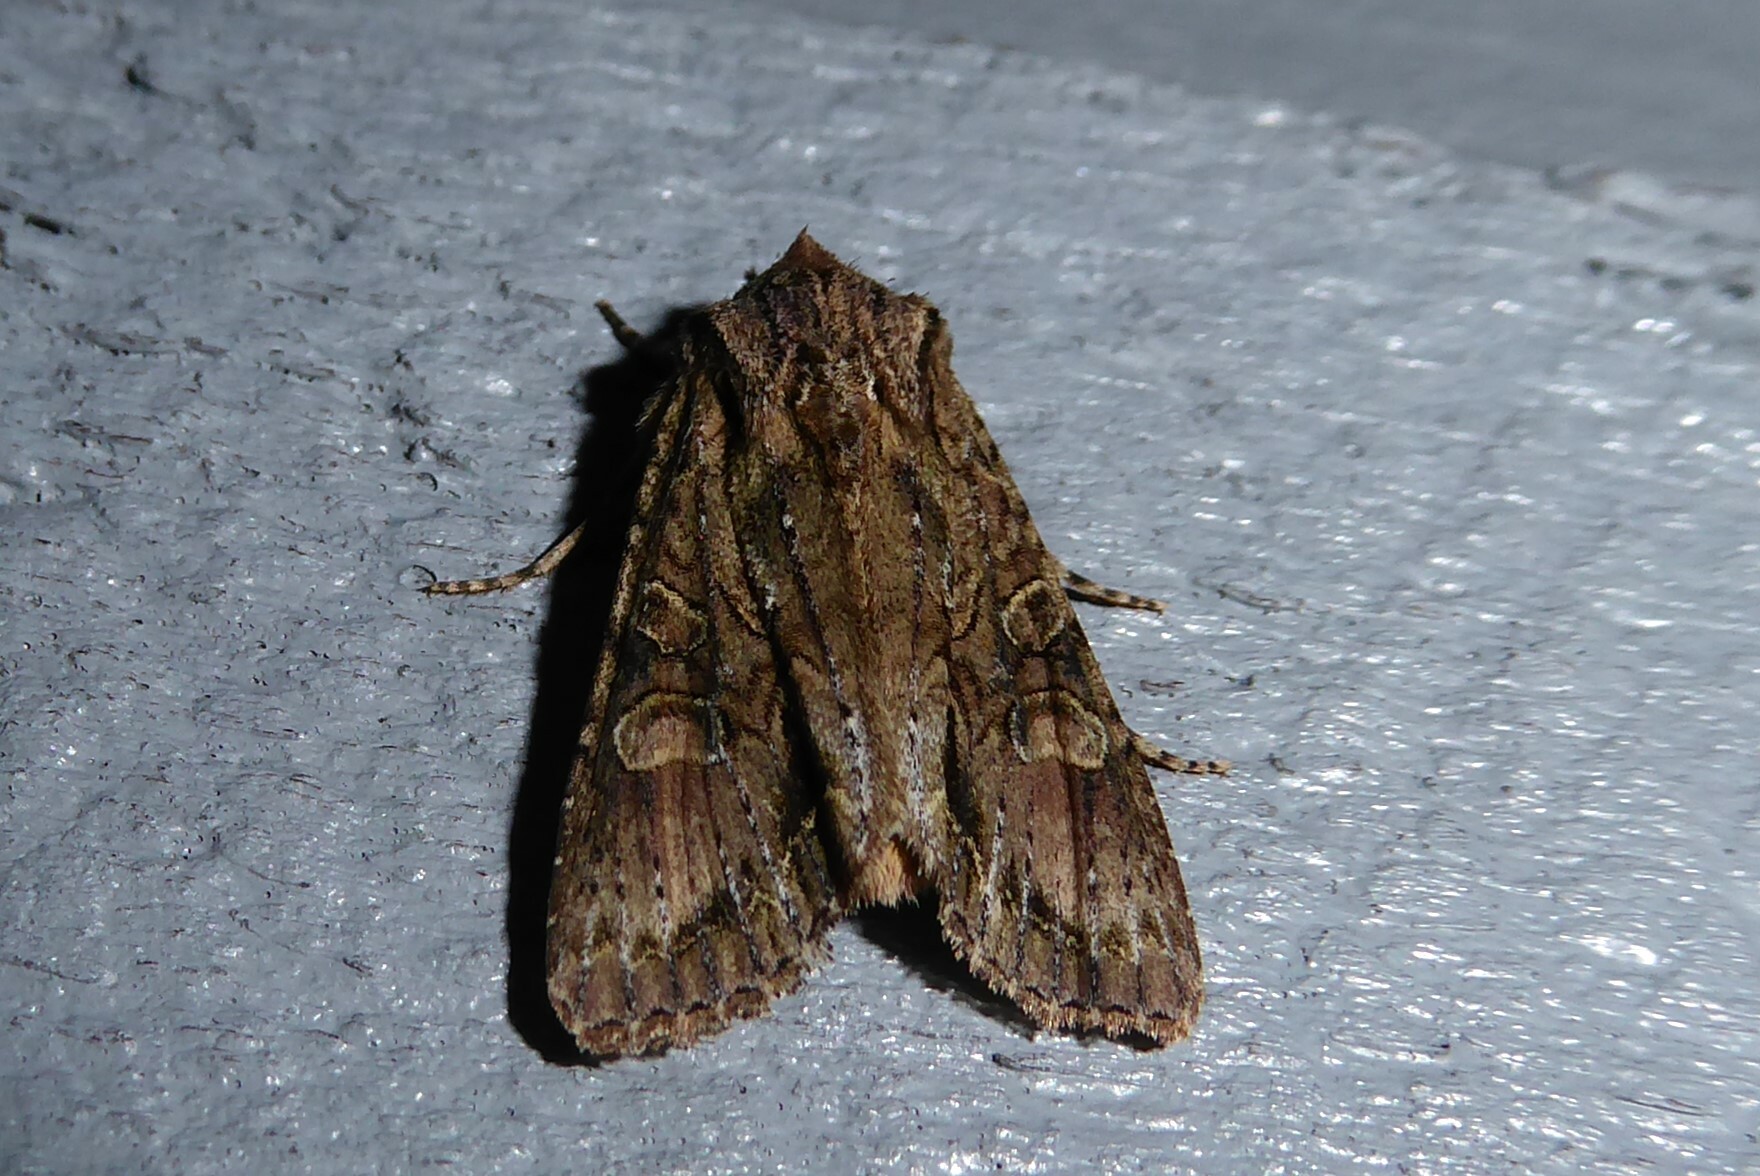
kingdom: Animalia
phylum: Arthropoda
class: Insecta
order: Lepidoptera
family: Noctuidae
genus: Ichneutica
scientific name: Ichneutica mutans
